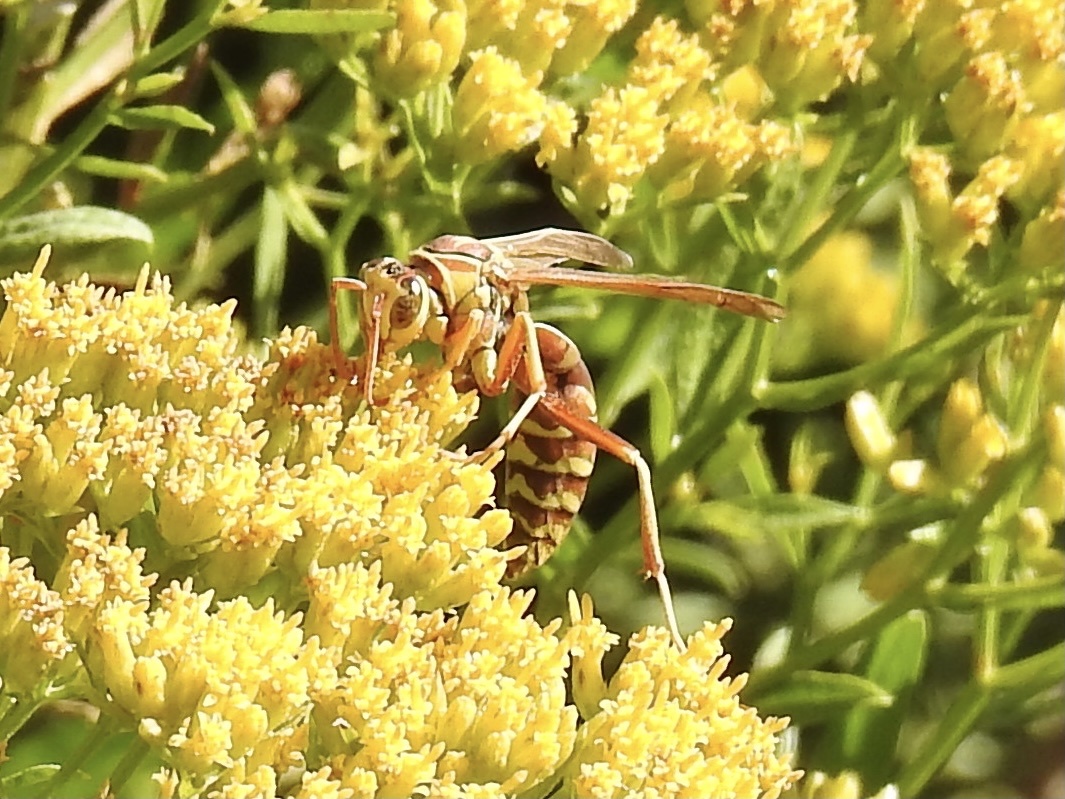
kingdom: Animalia
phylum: Arthropoda
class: Insecta
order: Hymenoptera
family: Eumenidae
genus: Polistes
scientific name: Polistes apachus
